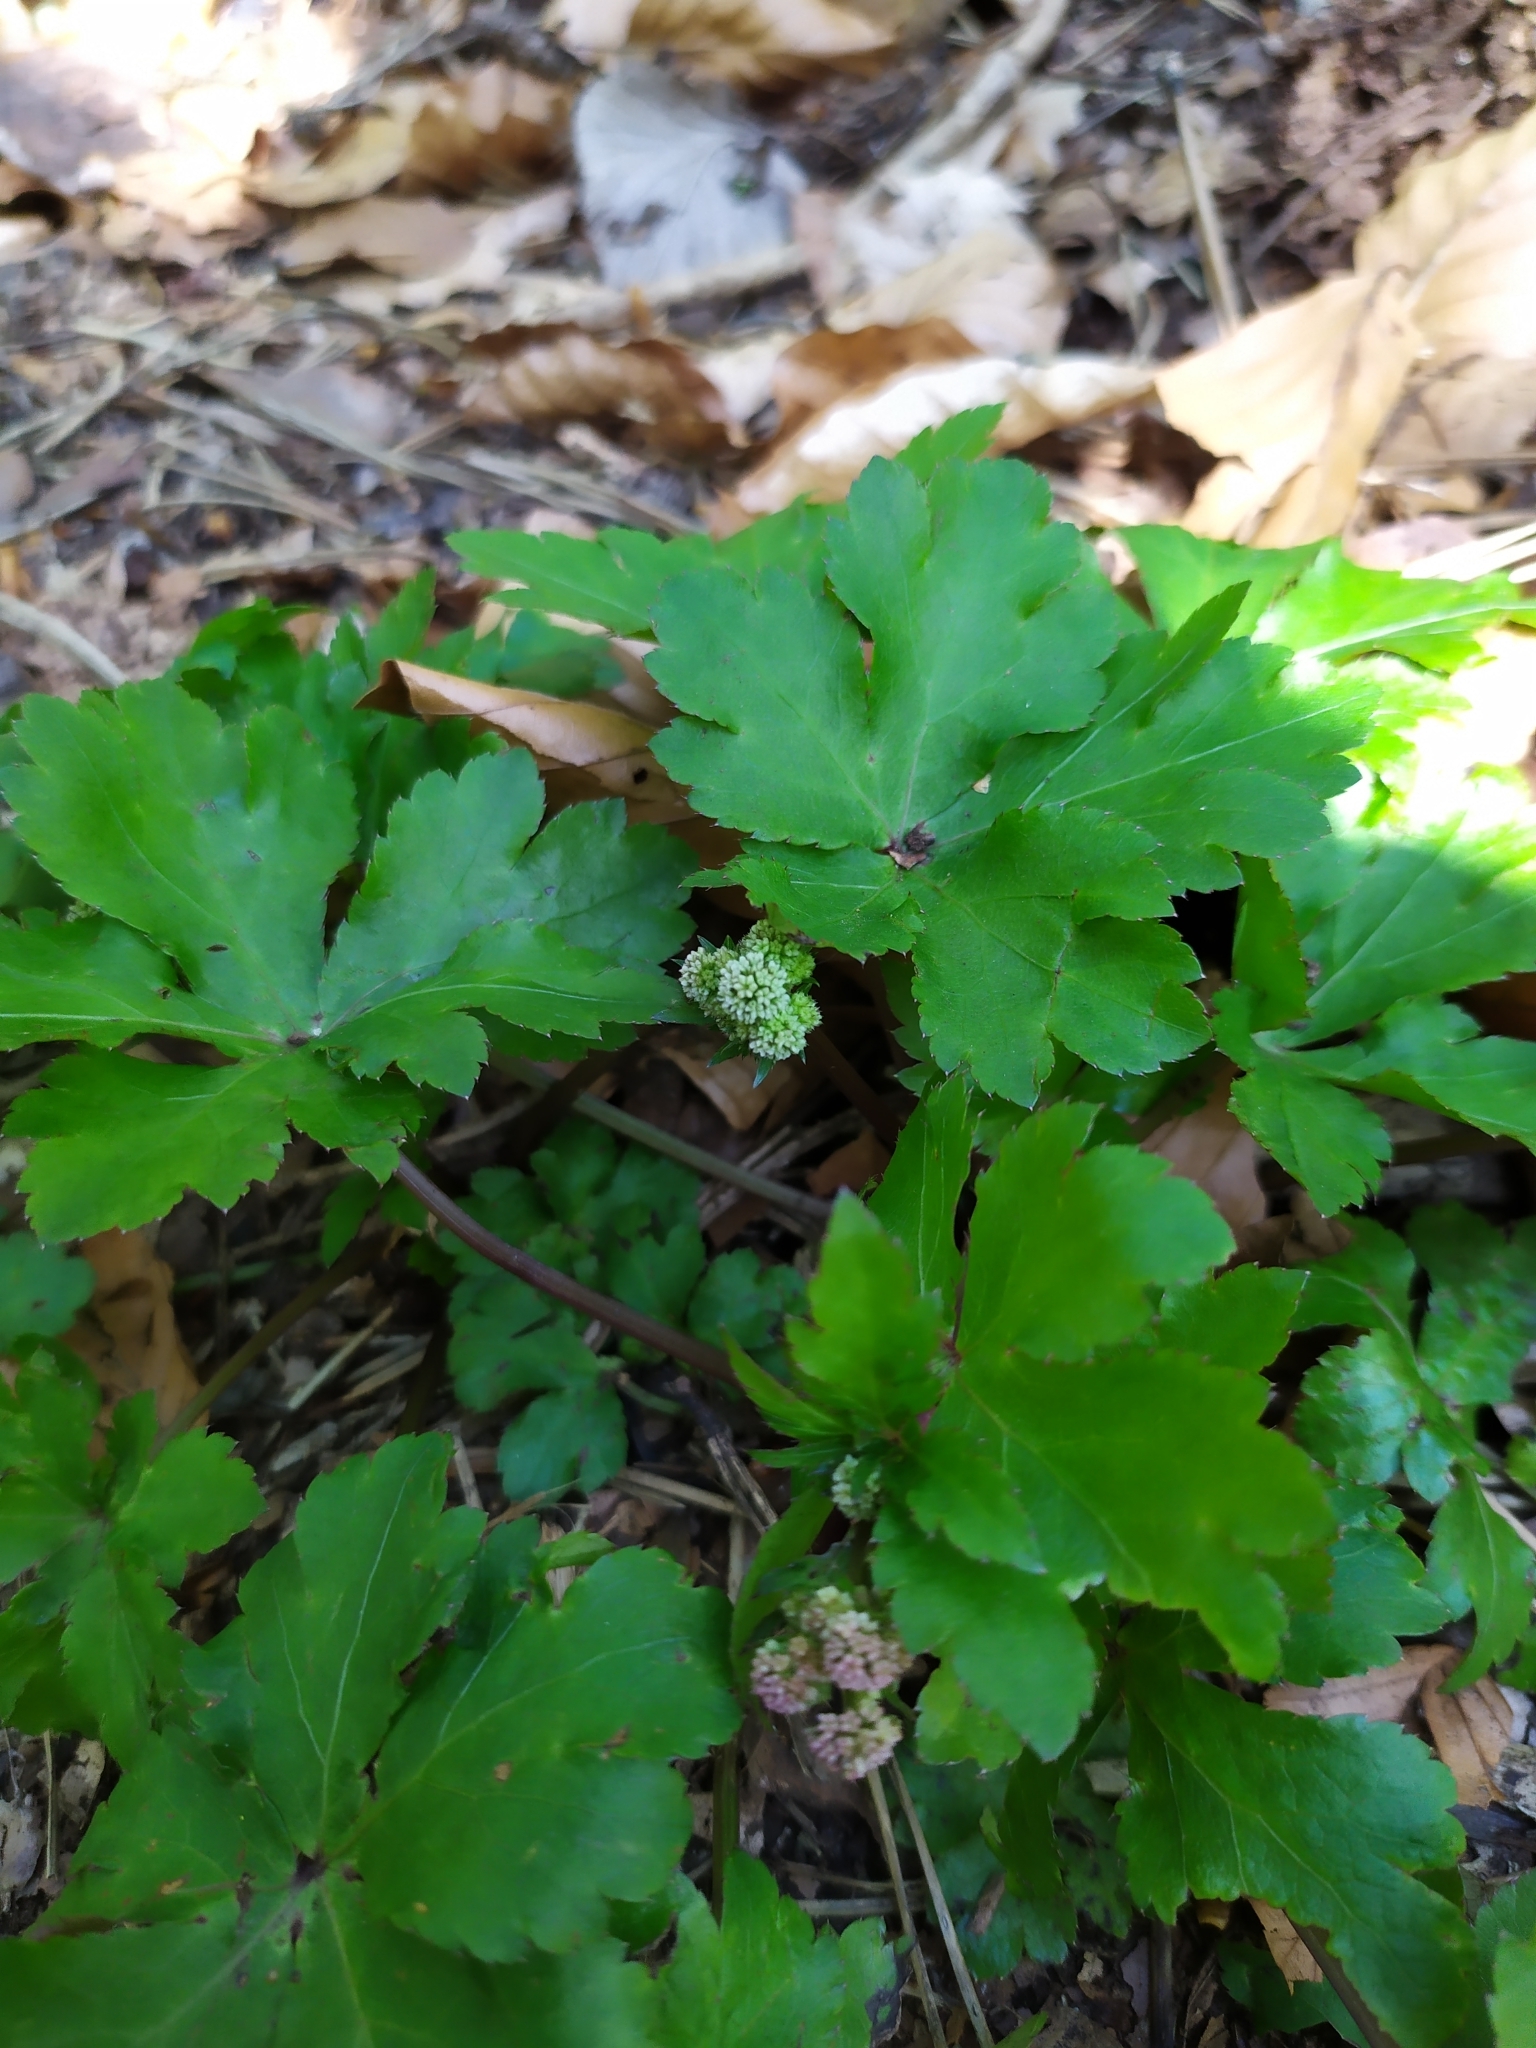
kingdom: Plantae
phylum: Tracheophyta
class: Magnoliopsida
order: Apiales
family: Apiaceae
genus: Sanicula
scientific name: Sanicula europaea
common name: Sanicle
